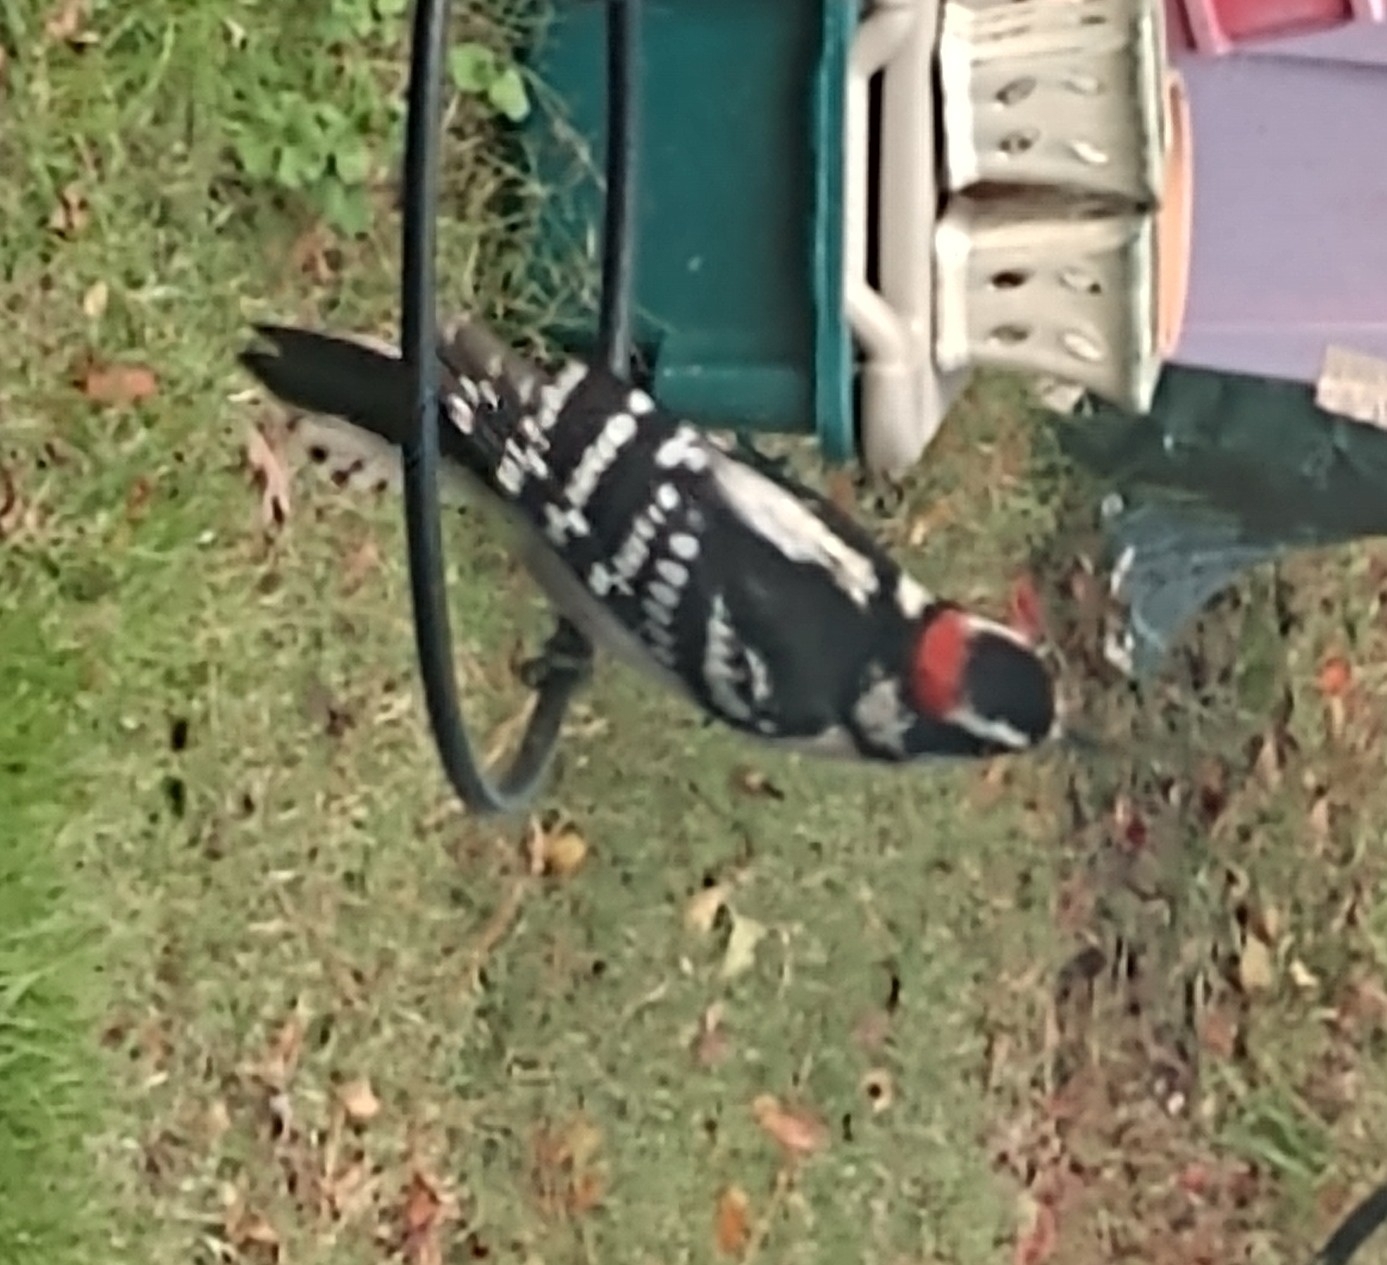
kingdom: Animalia
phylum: Chordata
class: Aves
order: Piciformes
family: Picidae
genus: Dryobates
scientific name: Dryobates pubescens
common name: Downy woodpecker
